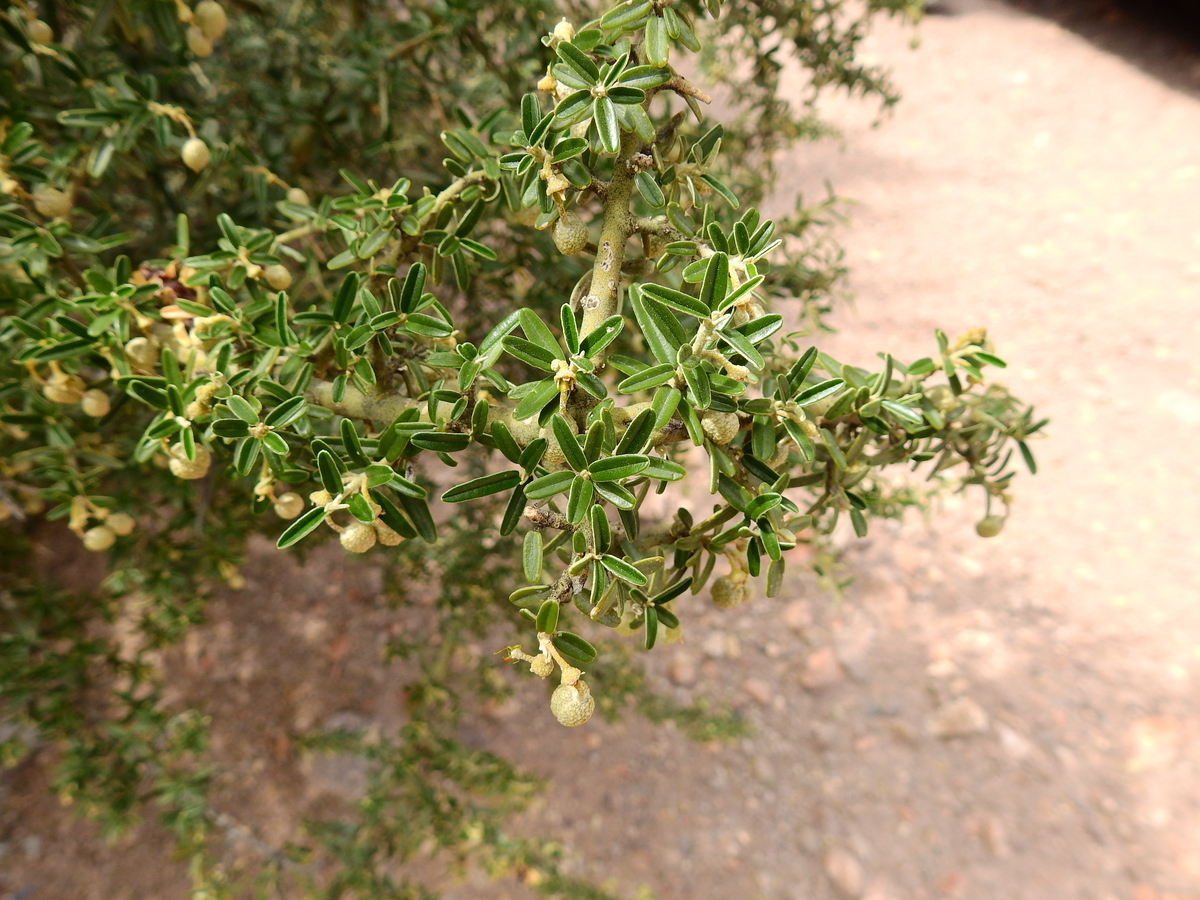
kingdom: Plantae
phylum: Tracheophyta
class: Magnoliopsida
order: Brassicales
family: Capparaceae
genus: Atamisquea
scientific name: Atamisquea emarginata
